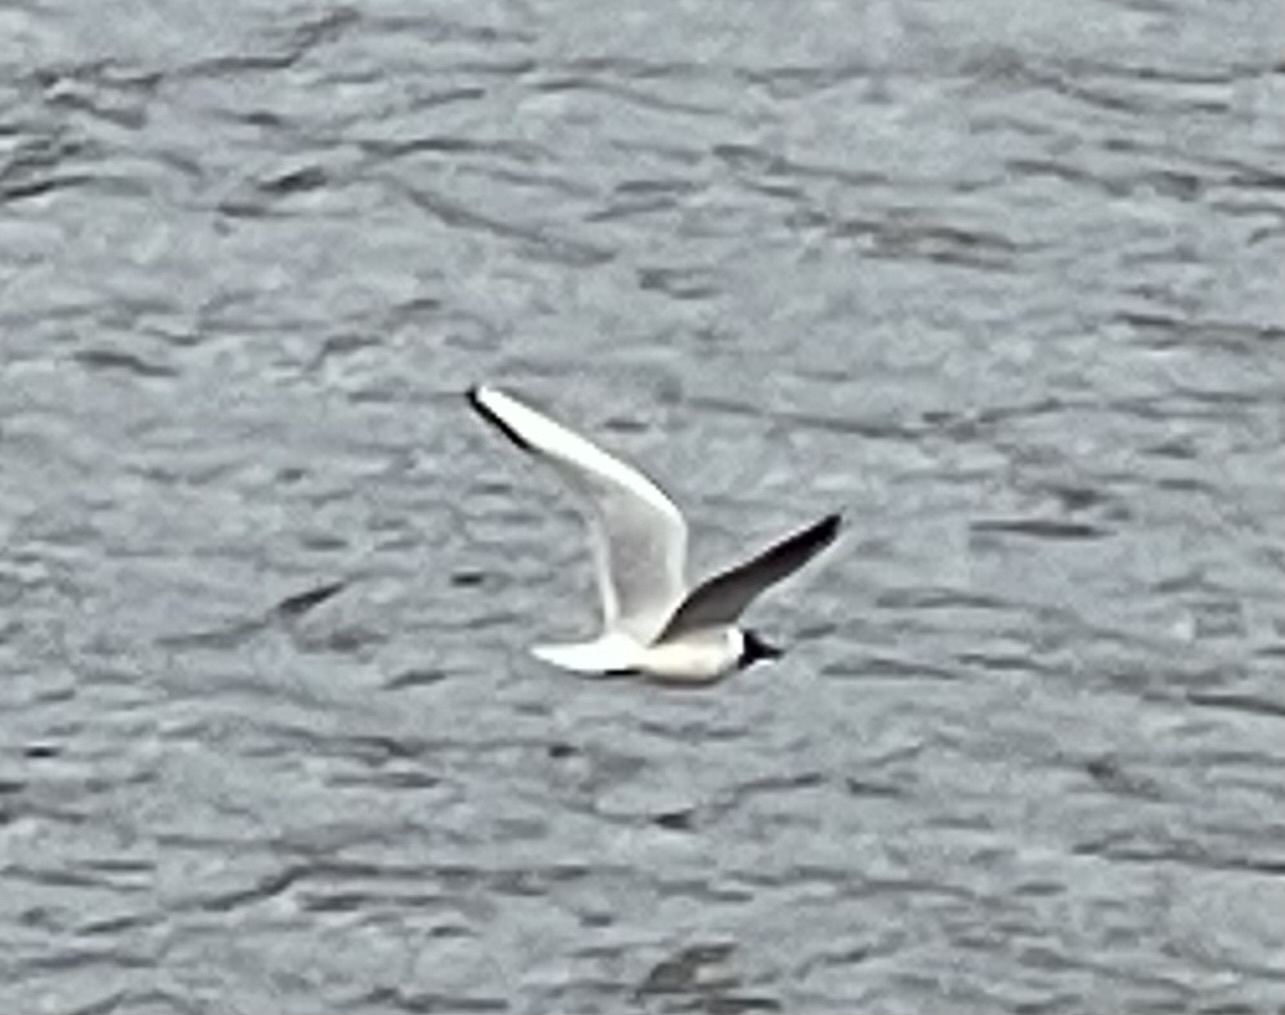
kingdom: Animalia
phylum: Chordata
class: Aves
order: Charadriiformes
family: Laridae
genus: Chroicocephalus
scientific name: Chroicocephalus ridibundus
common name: Black-headed gull
